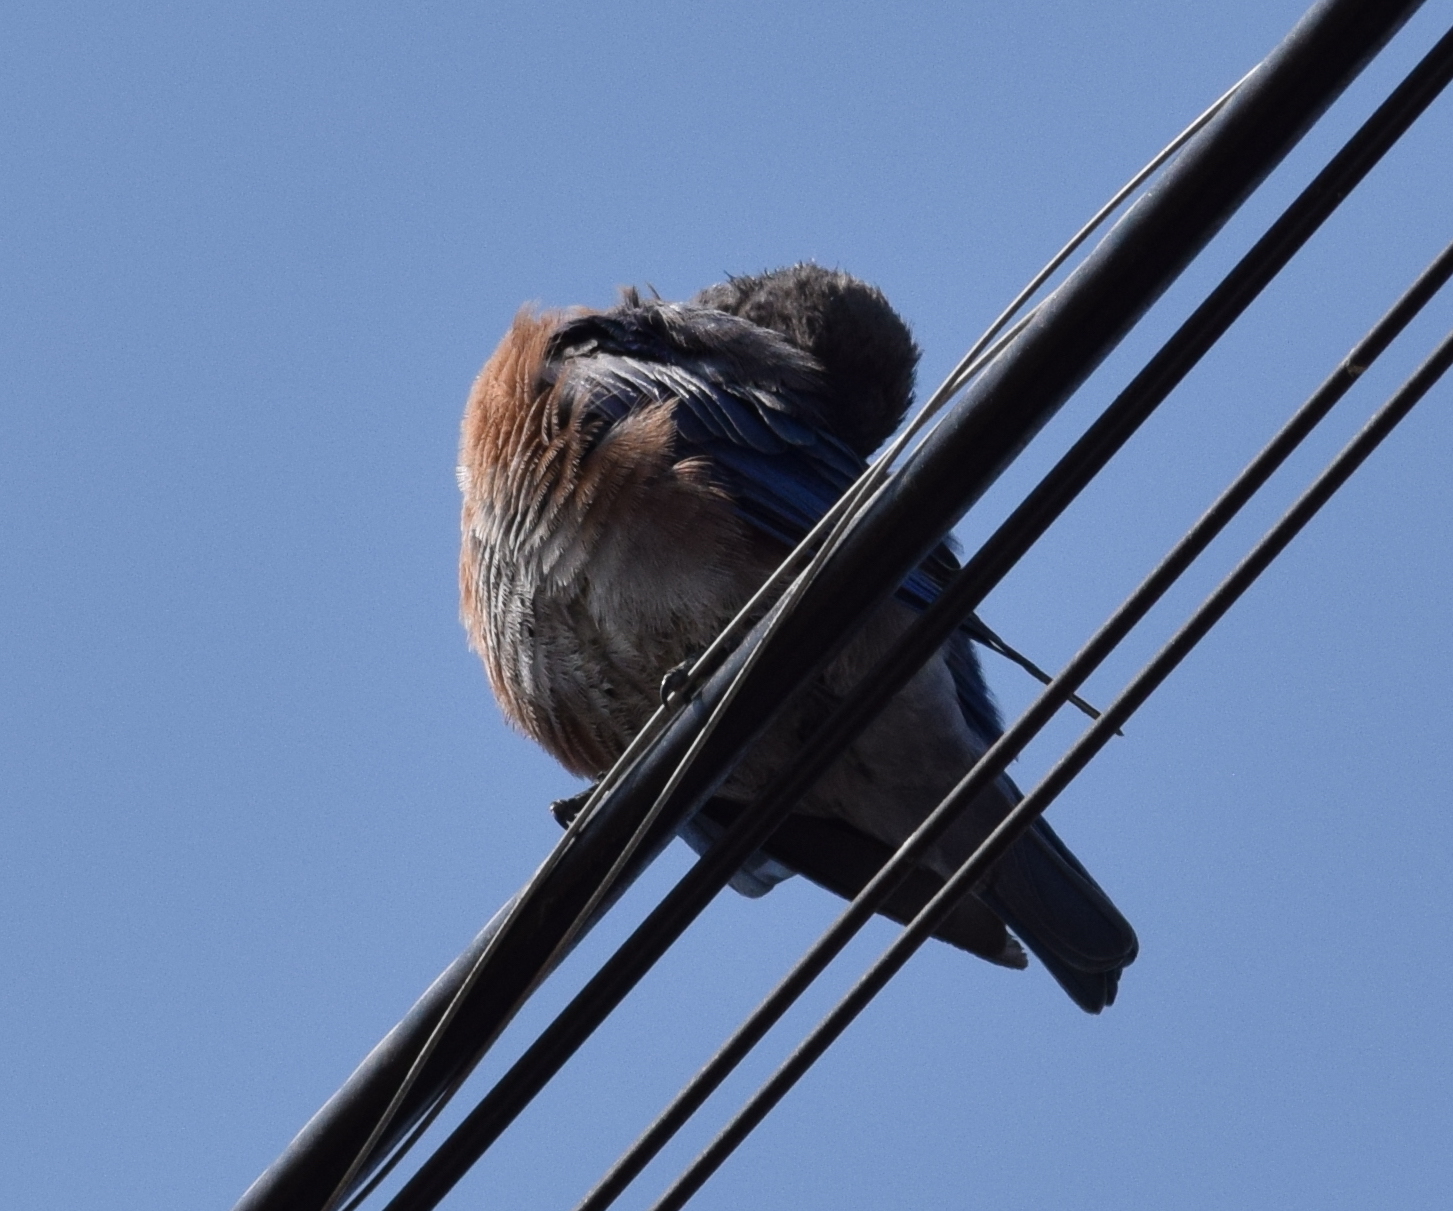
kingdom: Animalia
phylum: Chordata
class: Aves
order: Passeriformes
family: Turdidae
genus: Sialia
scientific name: Sialia mexicana
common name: Western bluebird
